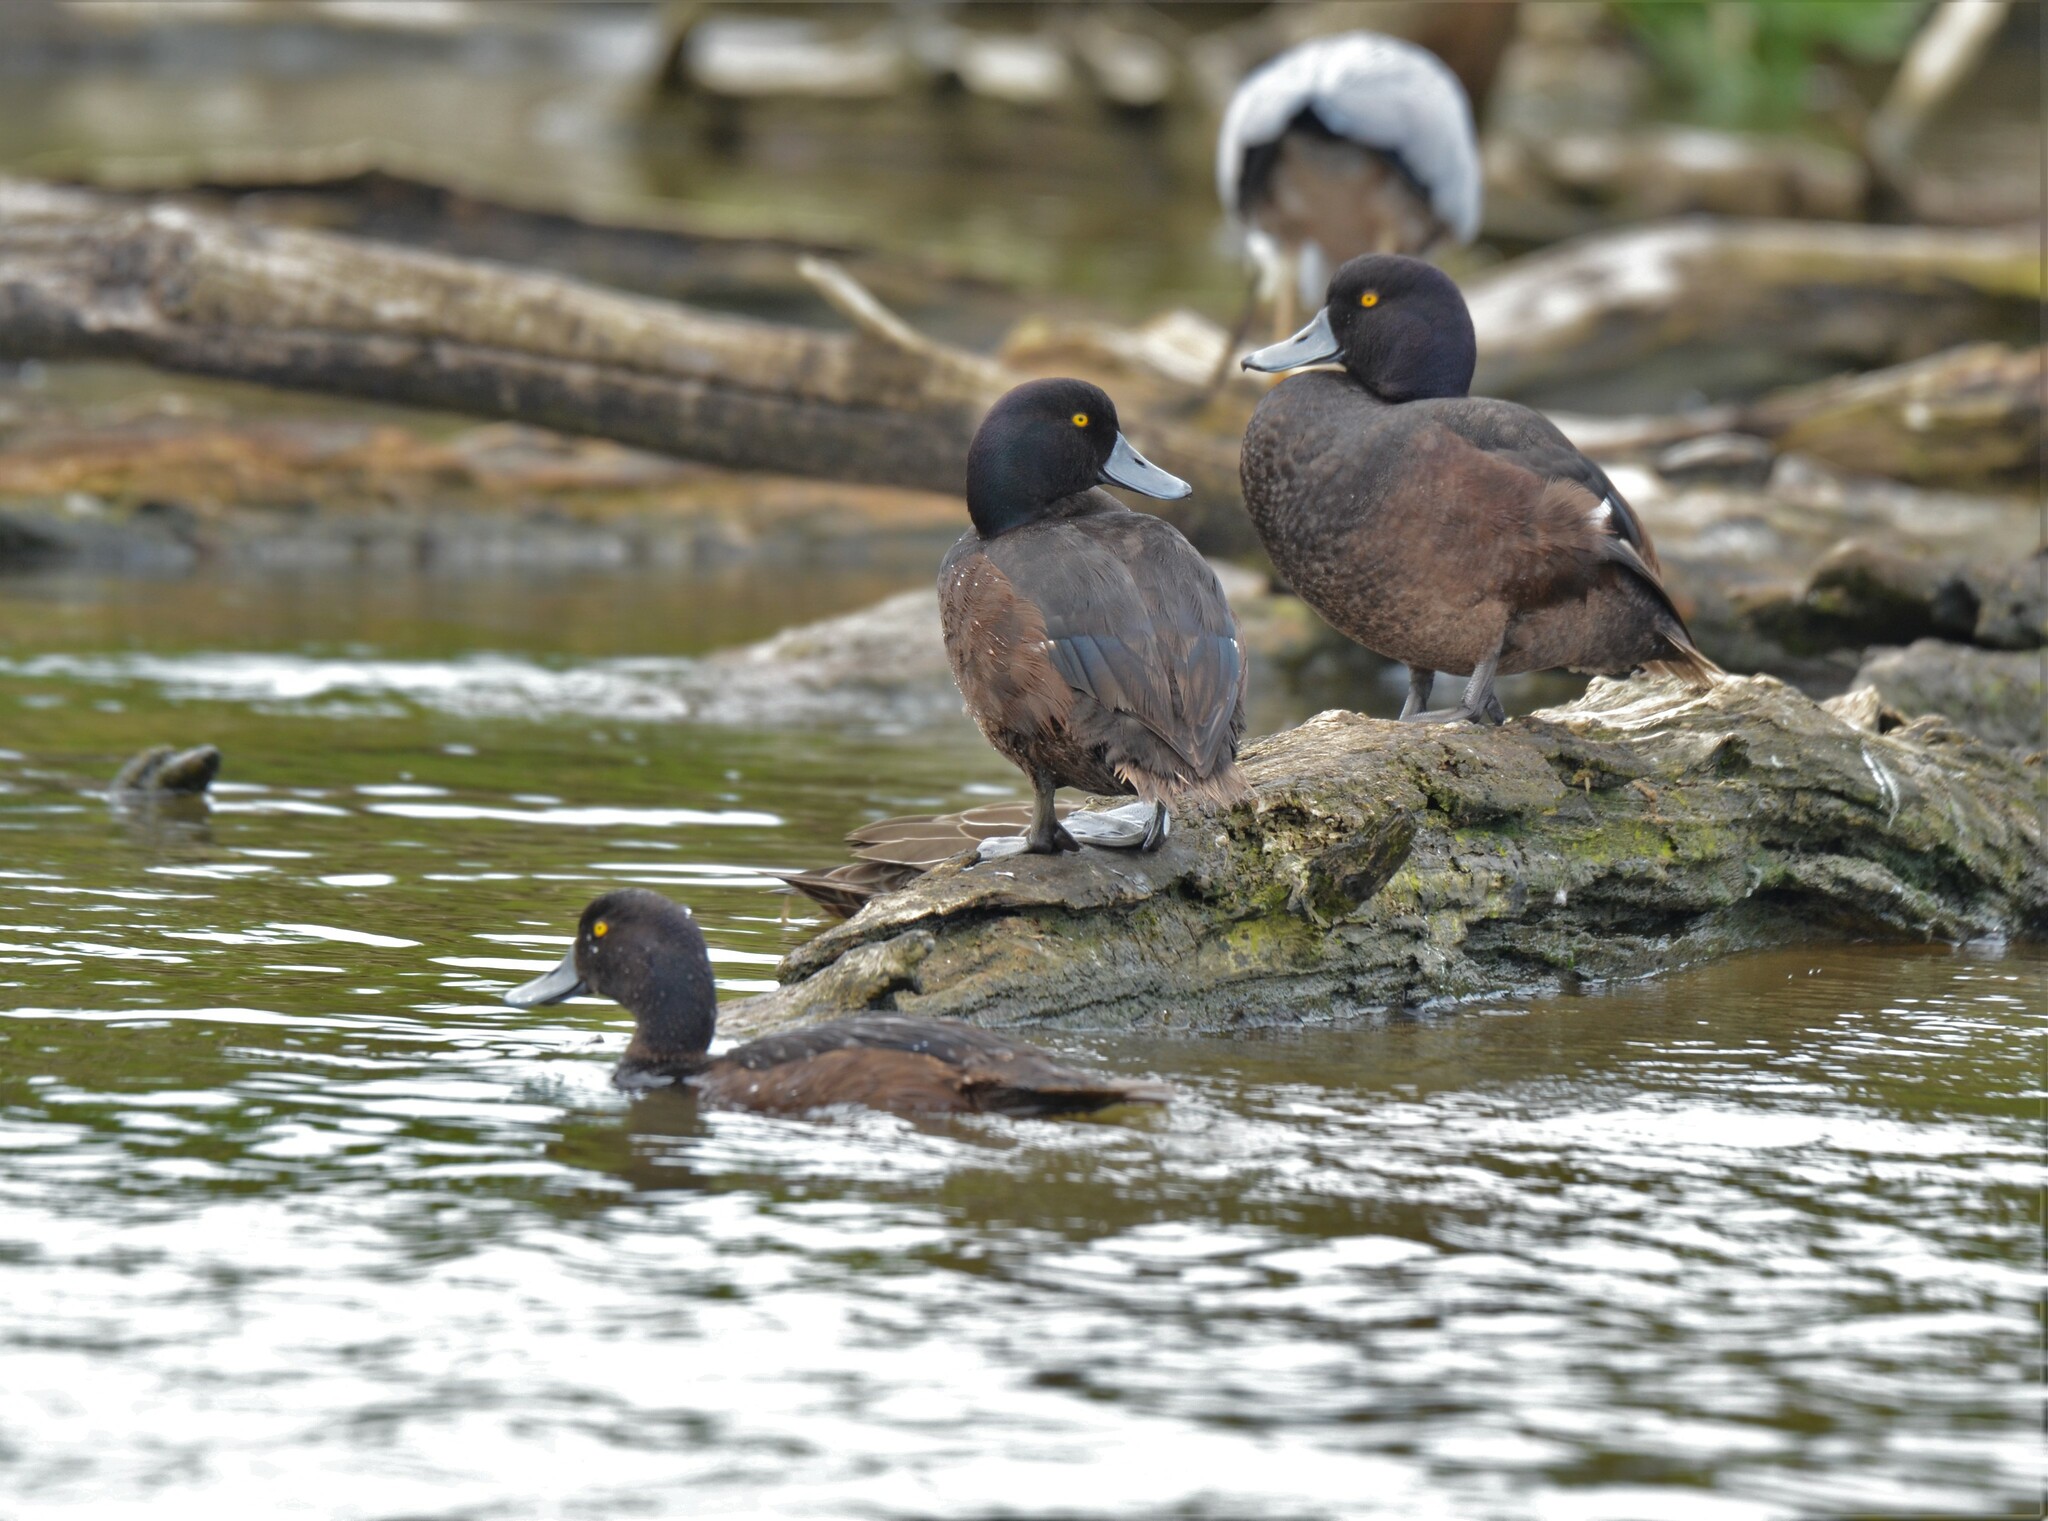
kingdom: Animalia
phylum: Chordata
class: Aves
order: Anseriformes
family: Anatidae
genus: Aythya
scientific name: Aythya novaeseelandiae
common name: New zealand scaup
